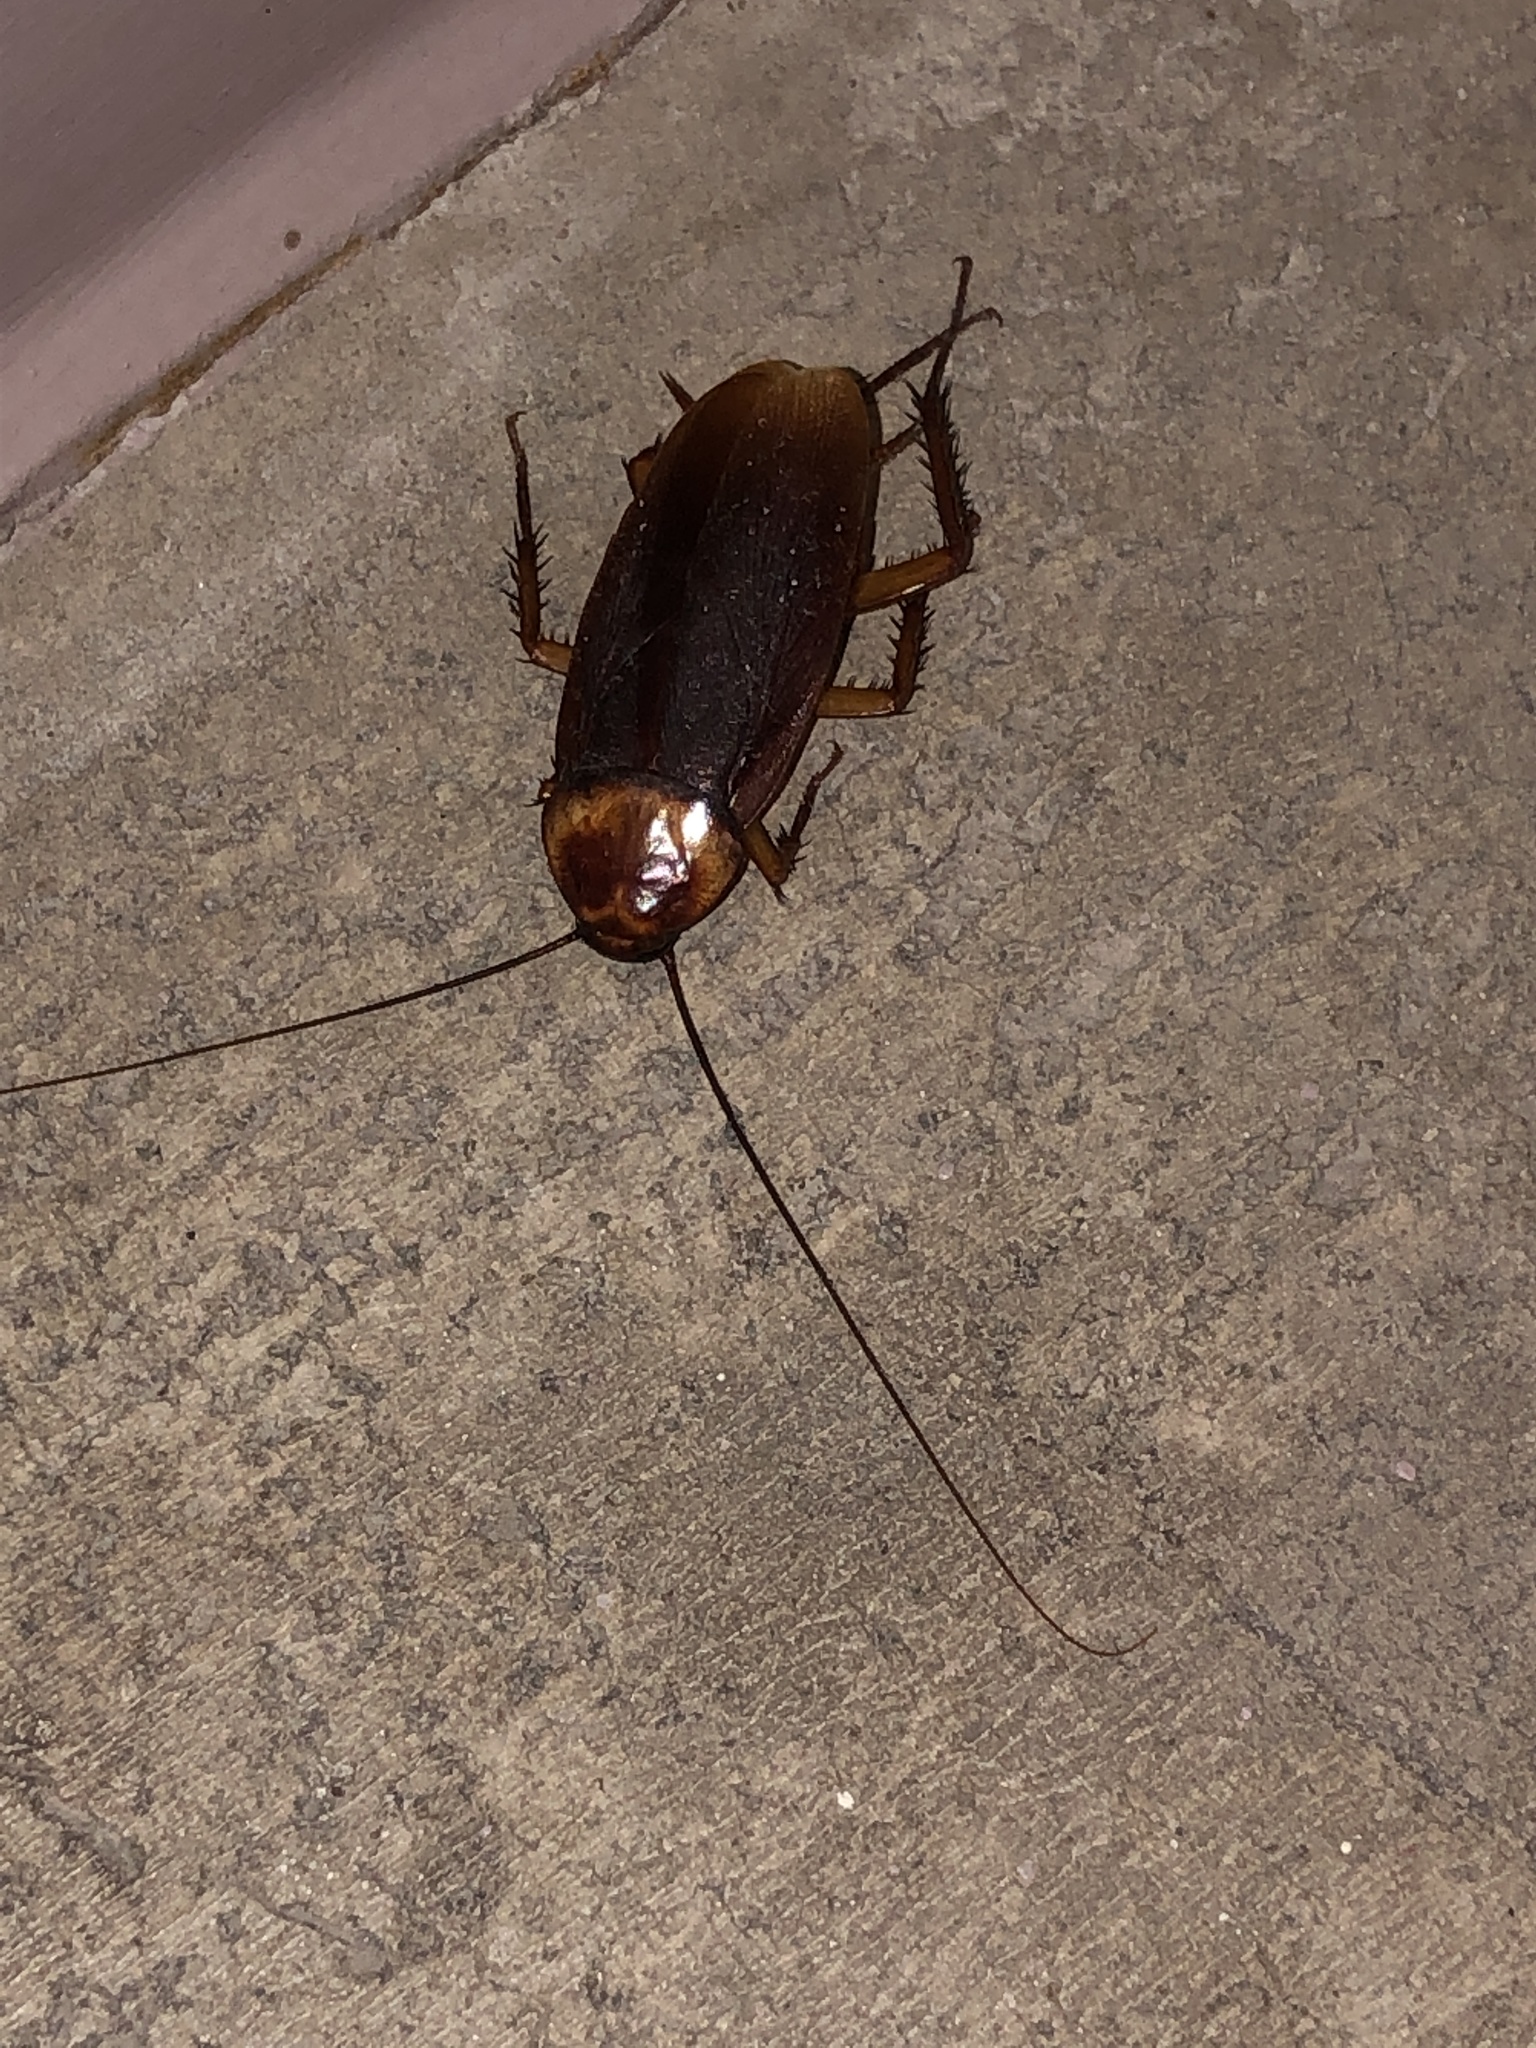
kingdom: Animalia
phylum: Arthropoda
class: Insecta
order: Blattodea
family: Blattidae
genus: Periplaneta
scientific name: Periplaneta americana
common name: American cockroach
